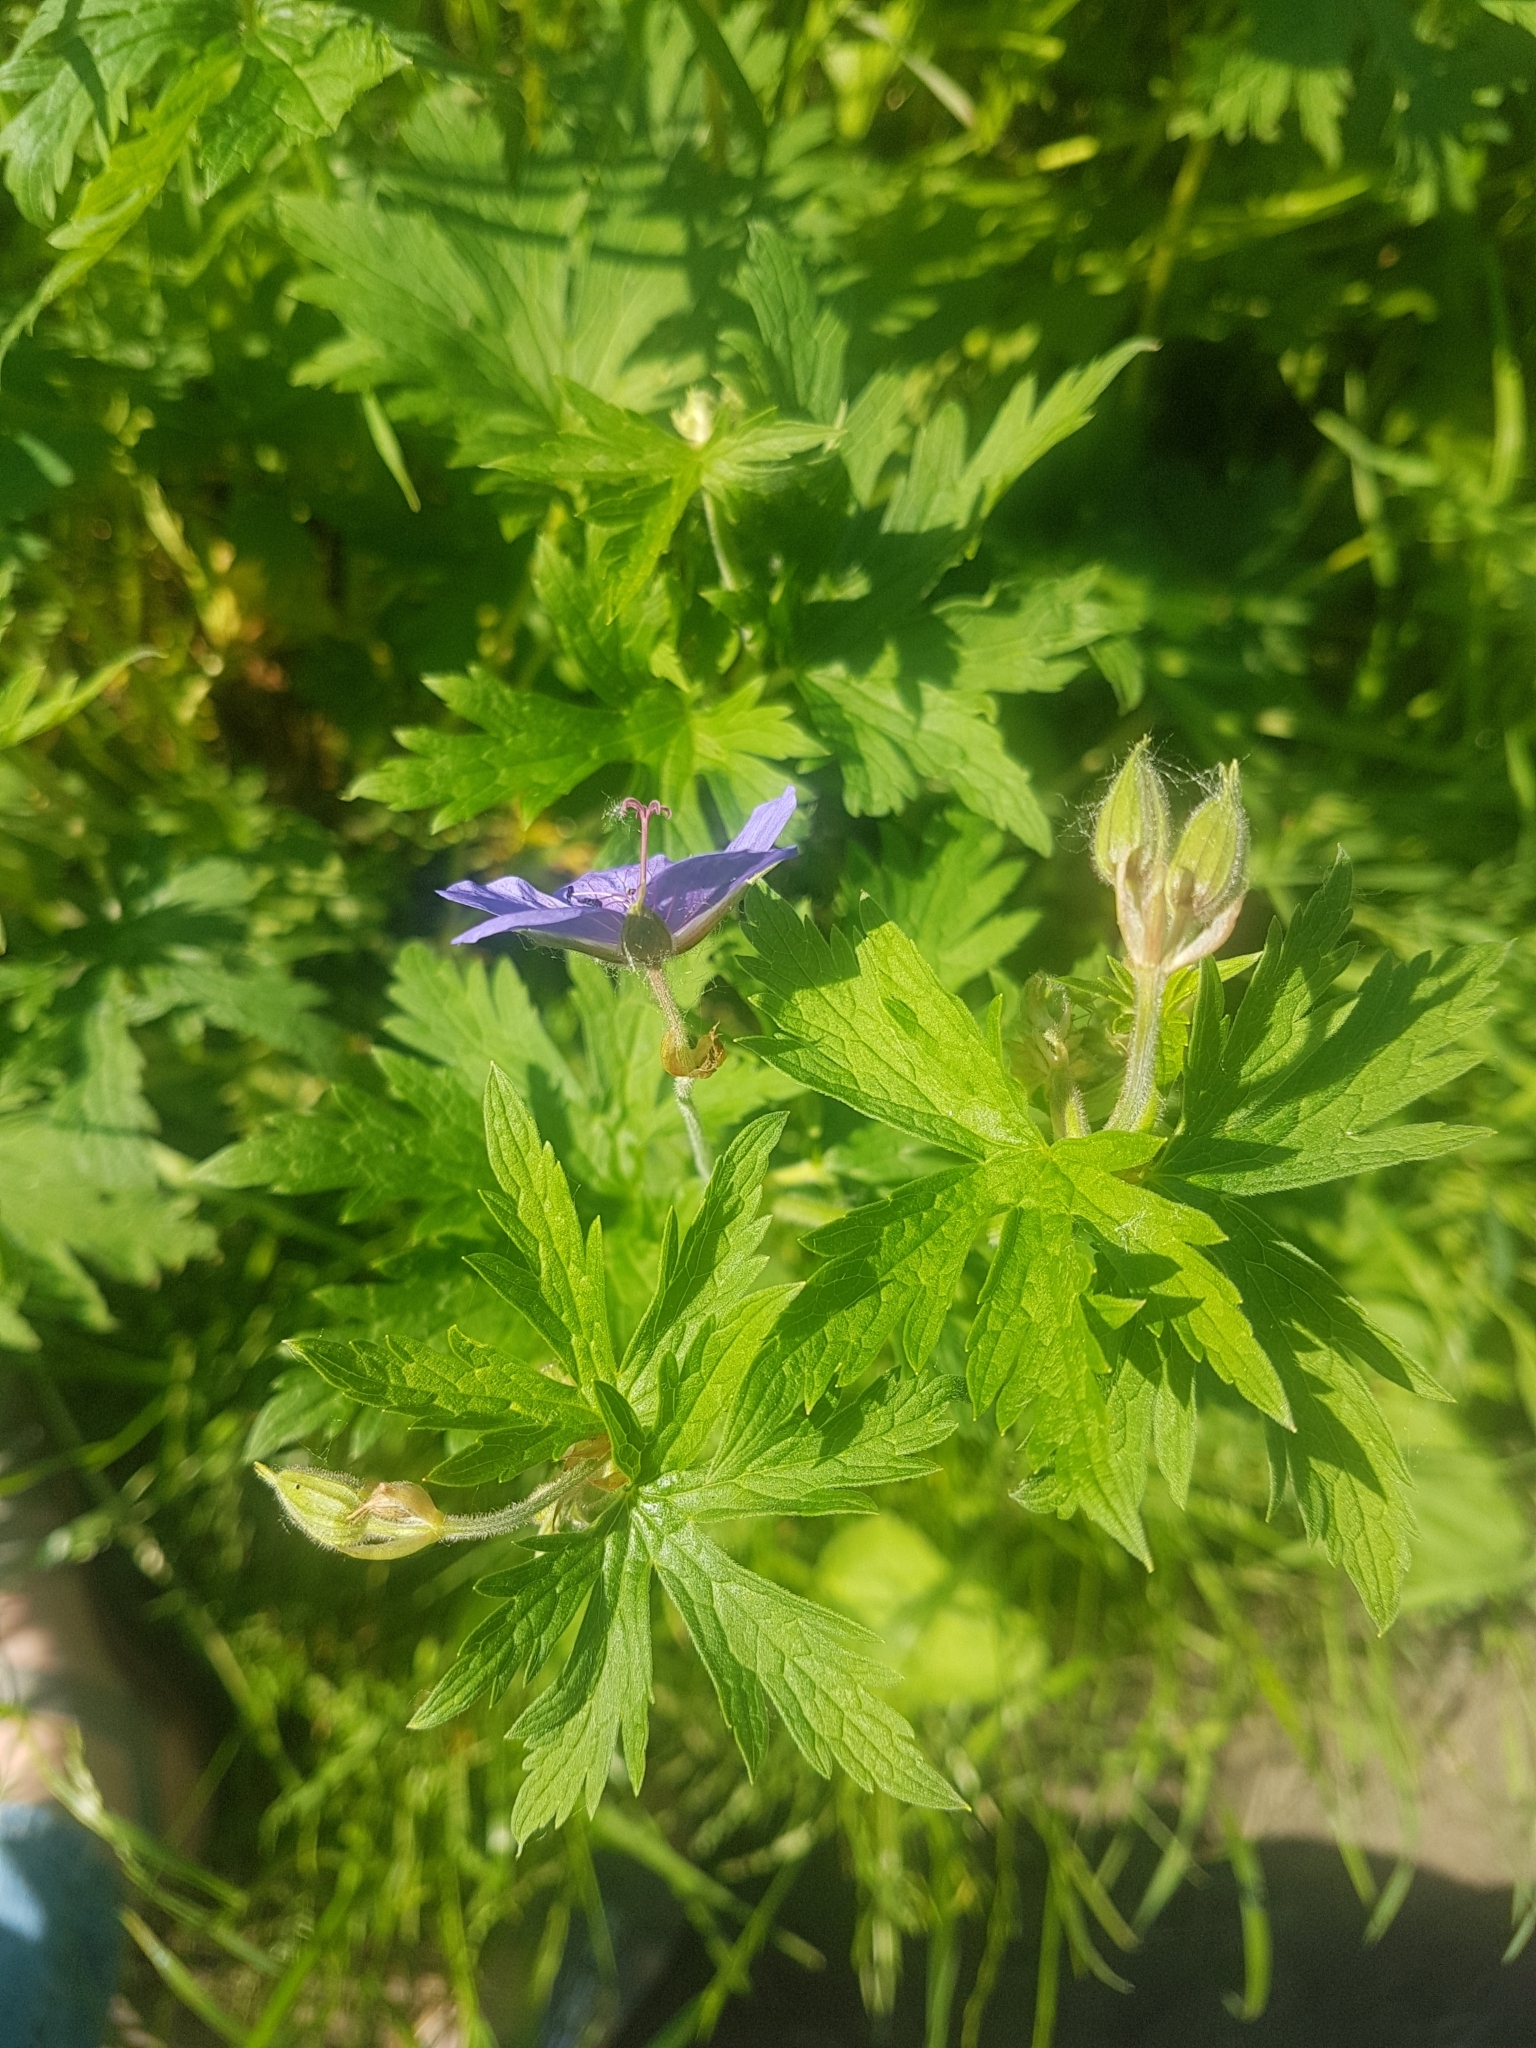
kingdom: Plantae
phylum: Tracheophyta
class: Magnoliopsida
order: Geraniales
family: Geraniaceae
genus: Geranium
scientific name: Geranium pratense
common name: Meadow crane's-bill
